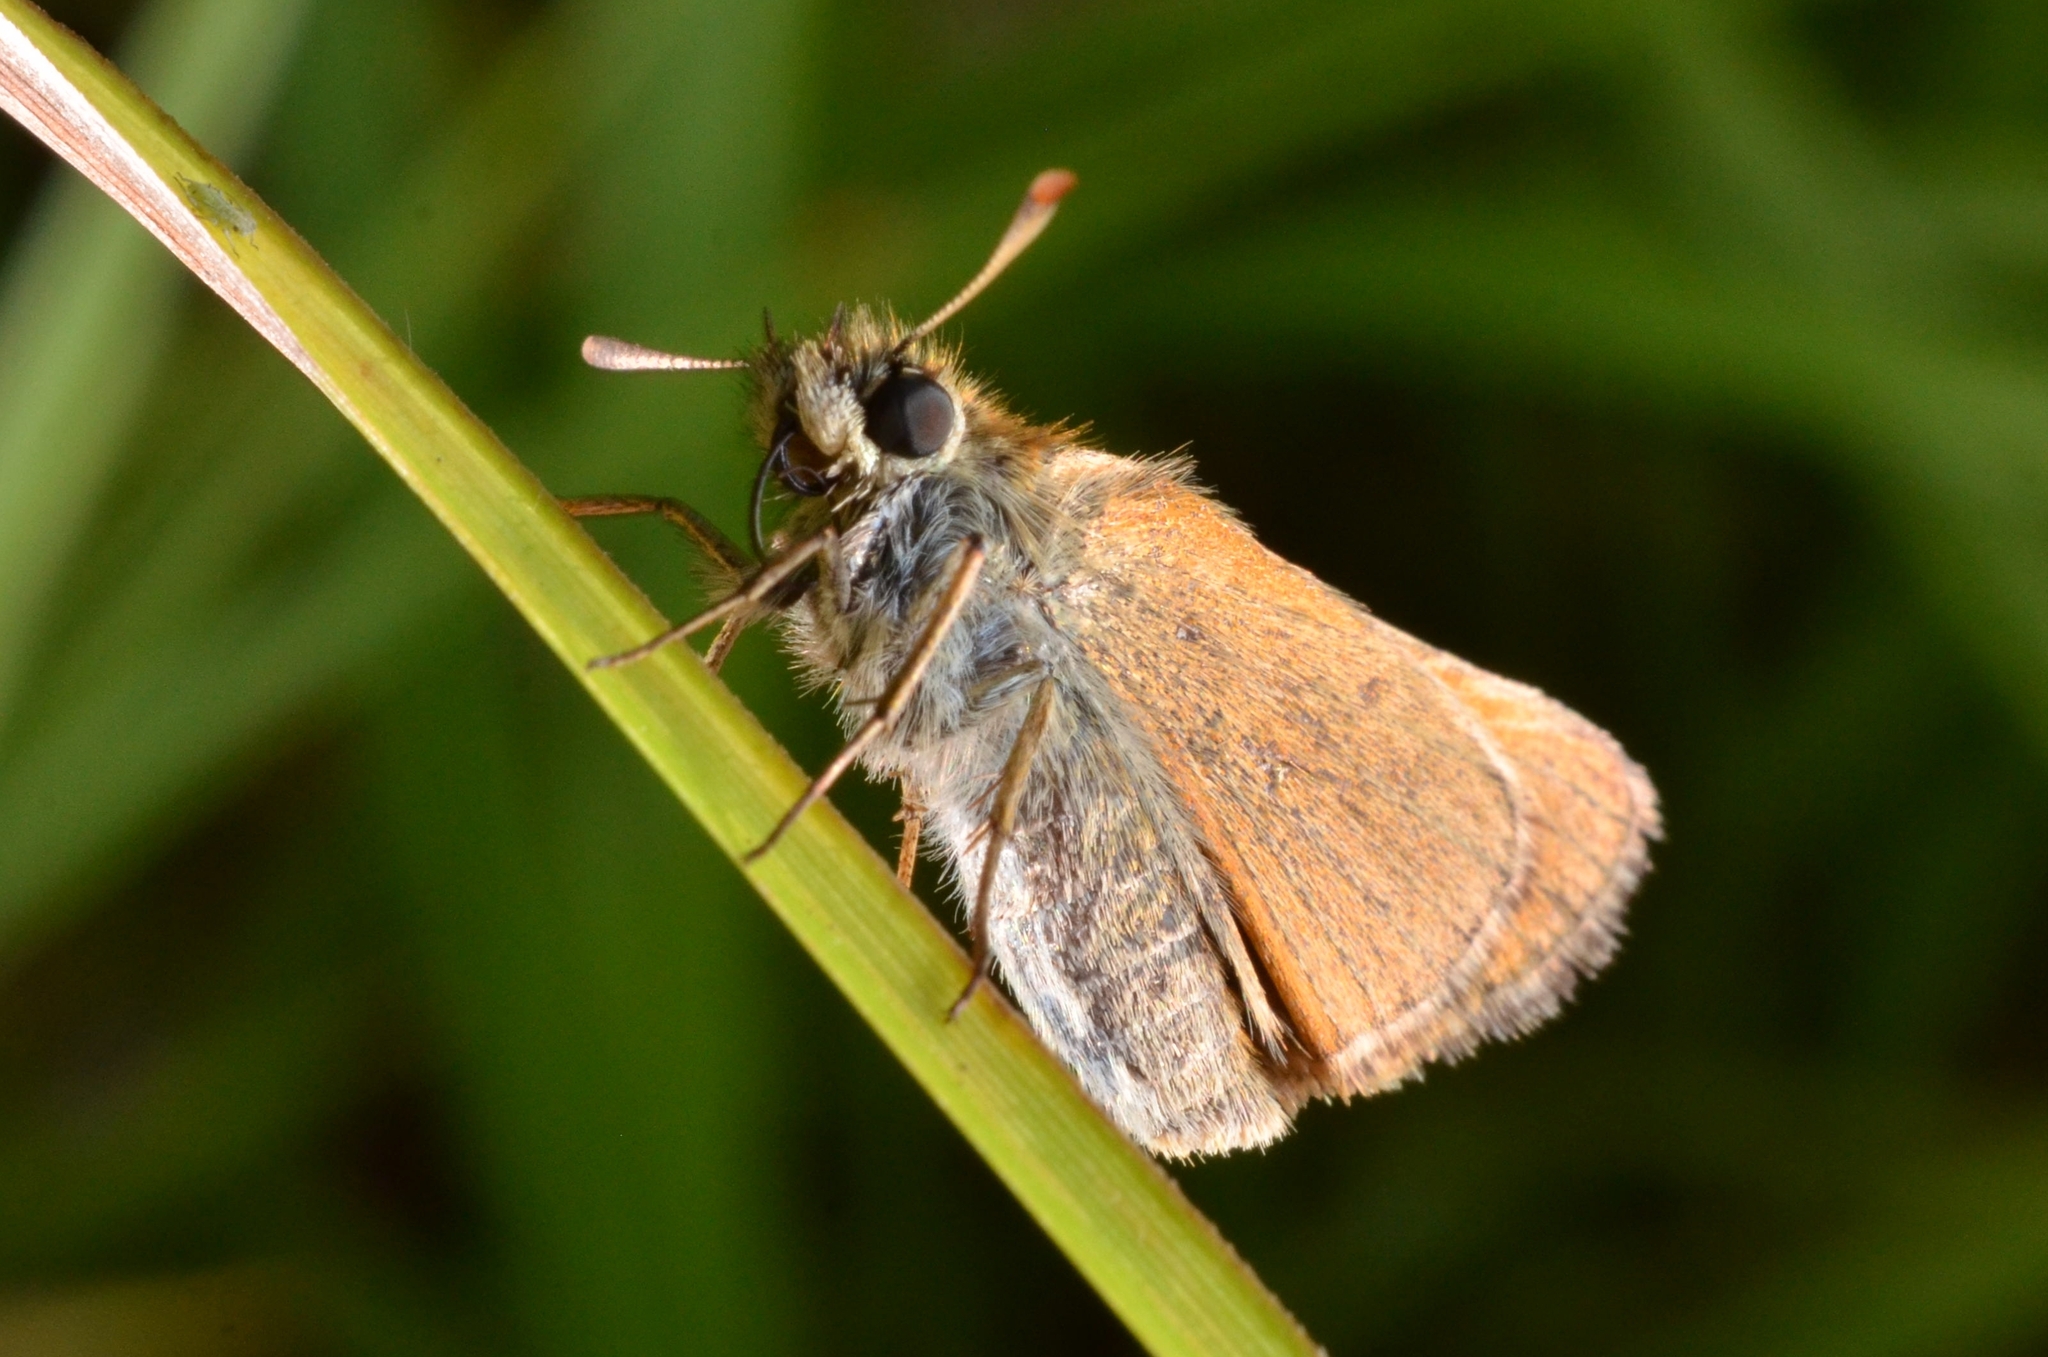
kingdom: Animalia
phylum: Arthropoda
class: Insecta
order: Lepidoptera
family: Hesperiidae
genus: Thymelicus
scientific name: Thymelicus sylvestris
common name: Small skipper
